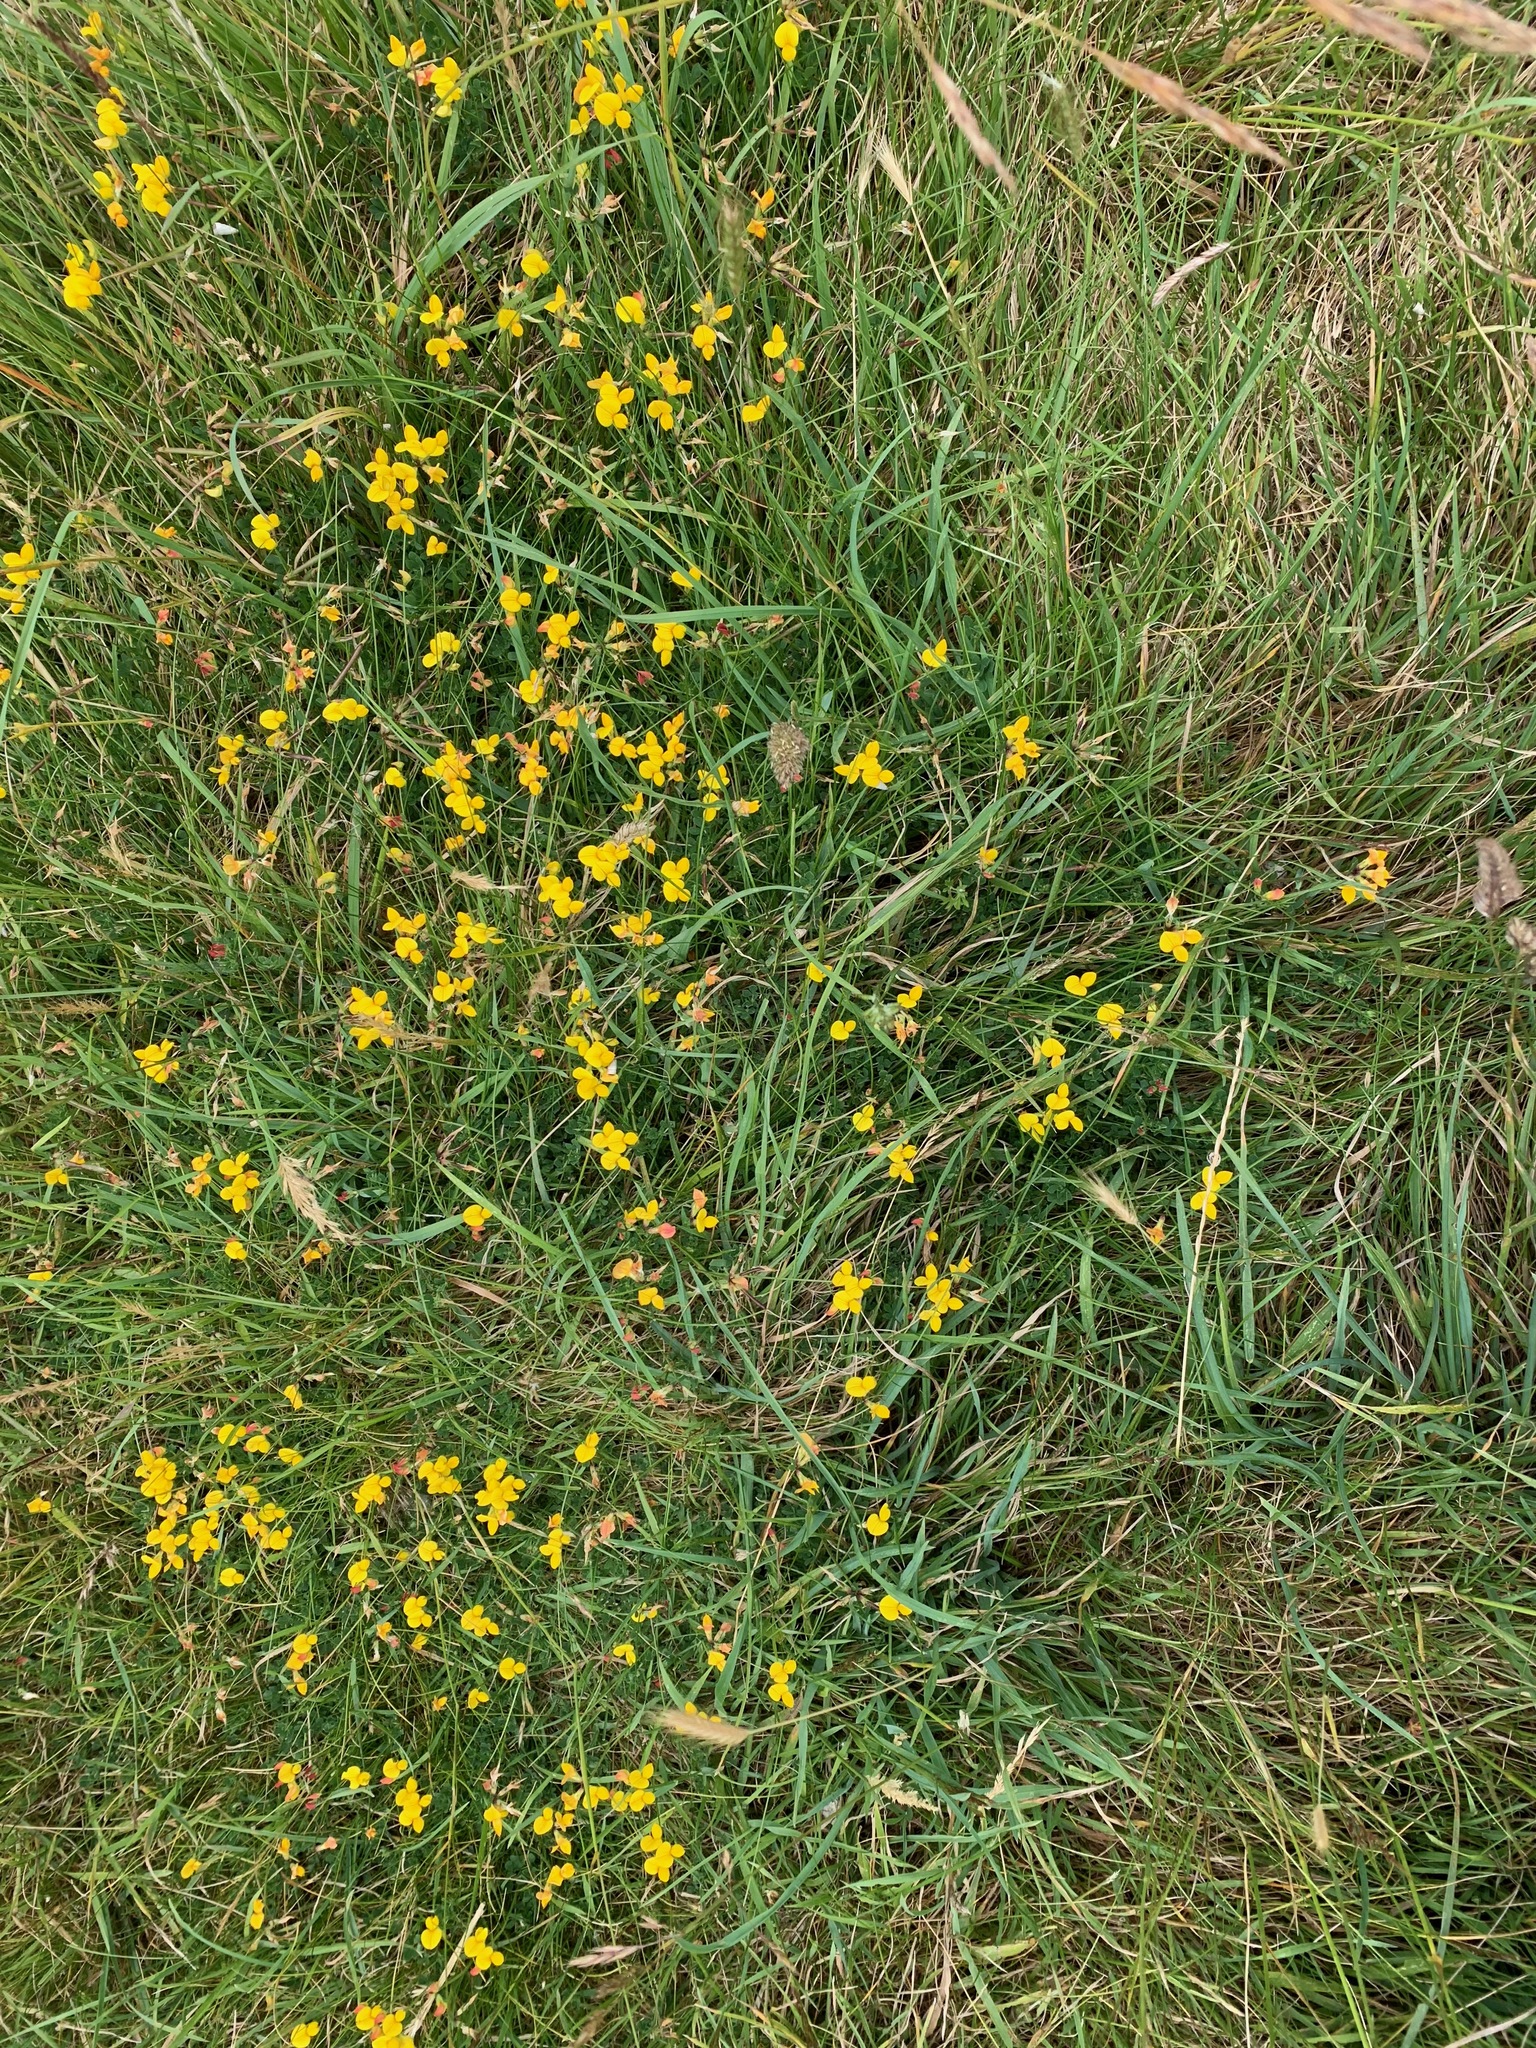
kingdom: Plantae
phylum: Tracheophyta
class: Magnoliopsida
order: Fabales
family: Fabaceae
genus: Lotus
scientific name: Lotus corniculatus
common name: Common bird's-foot-trefoil
